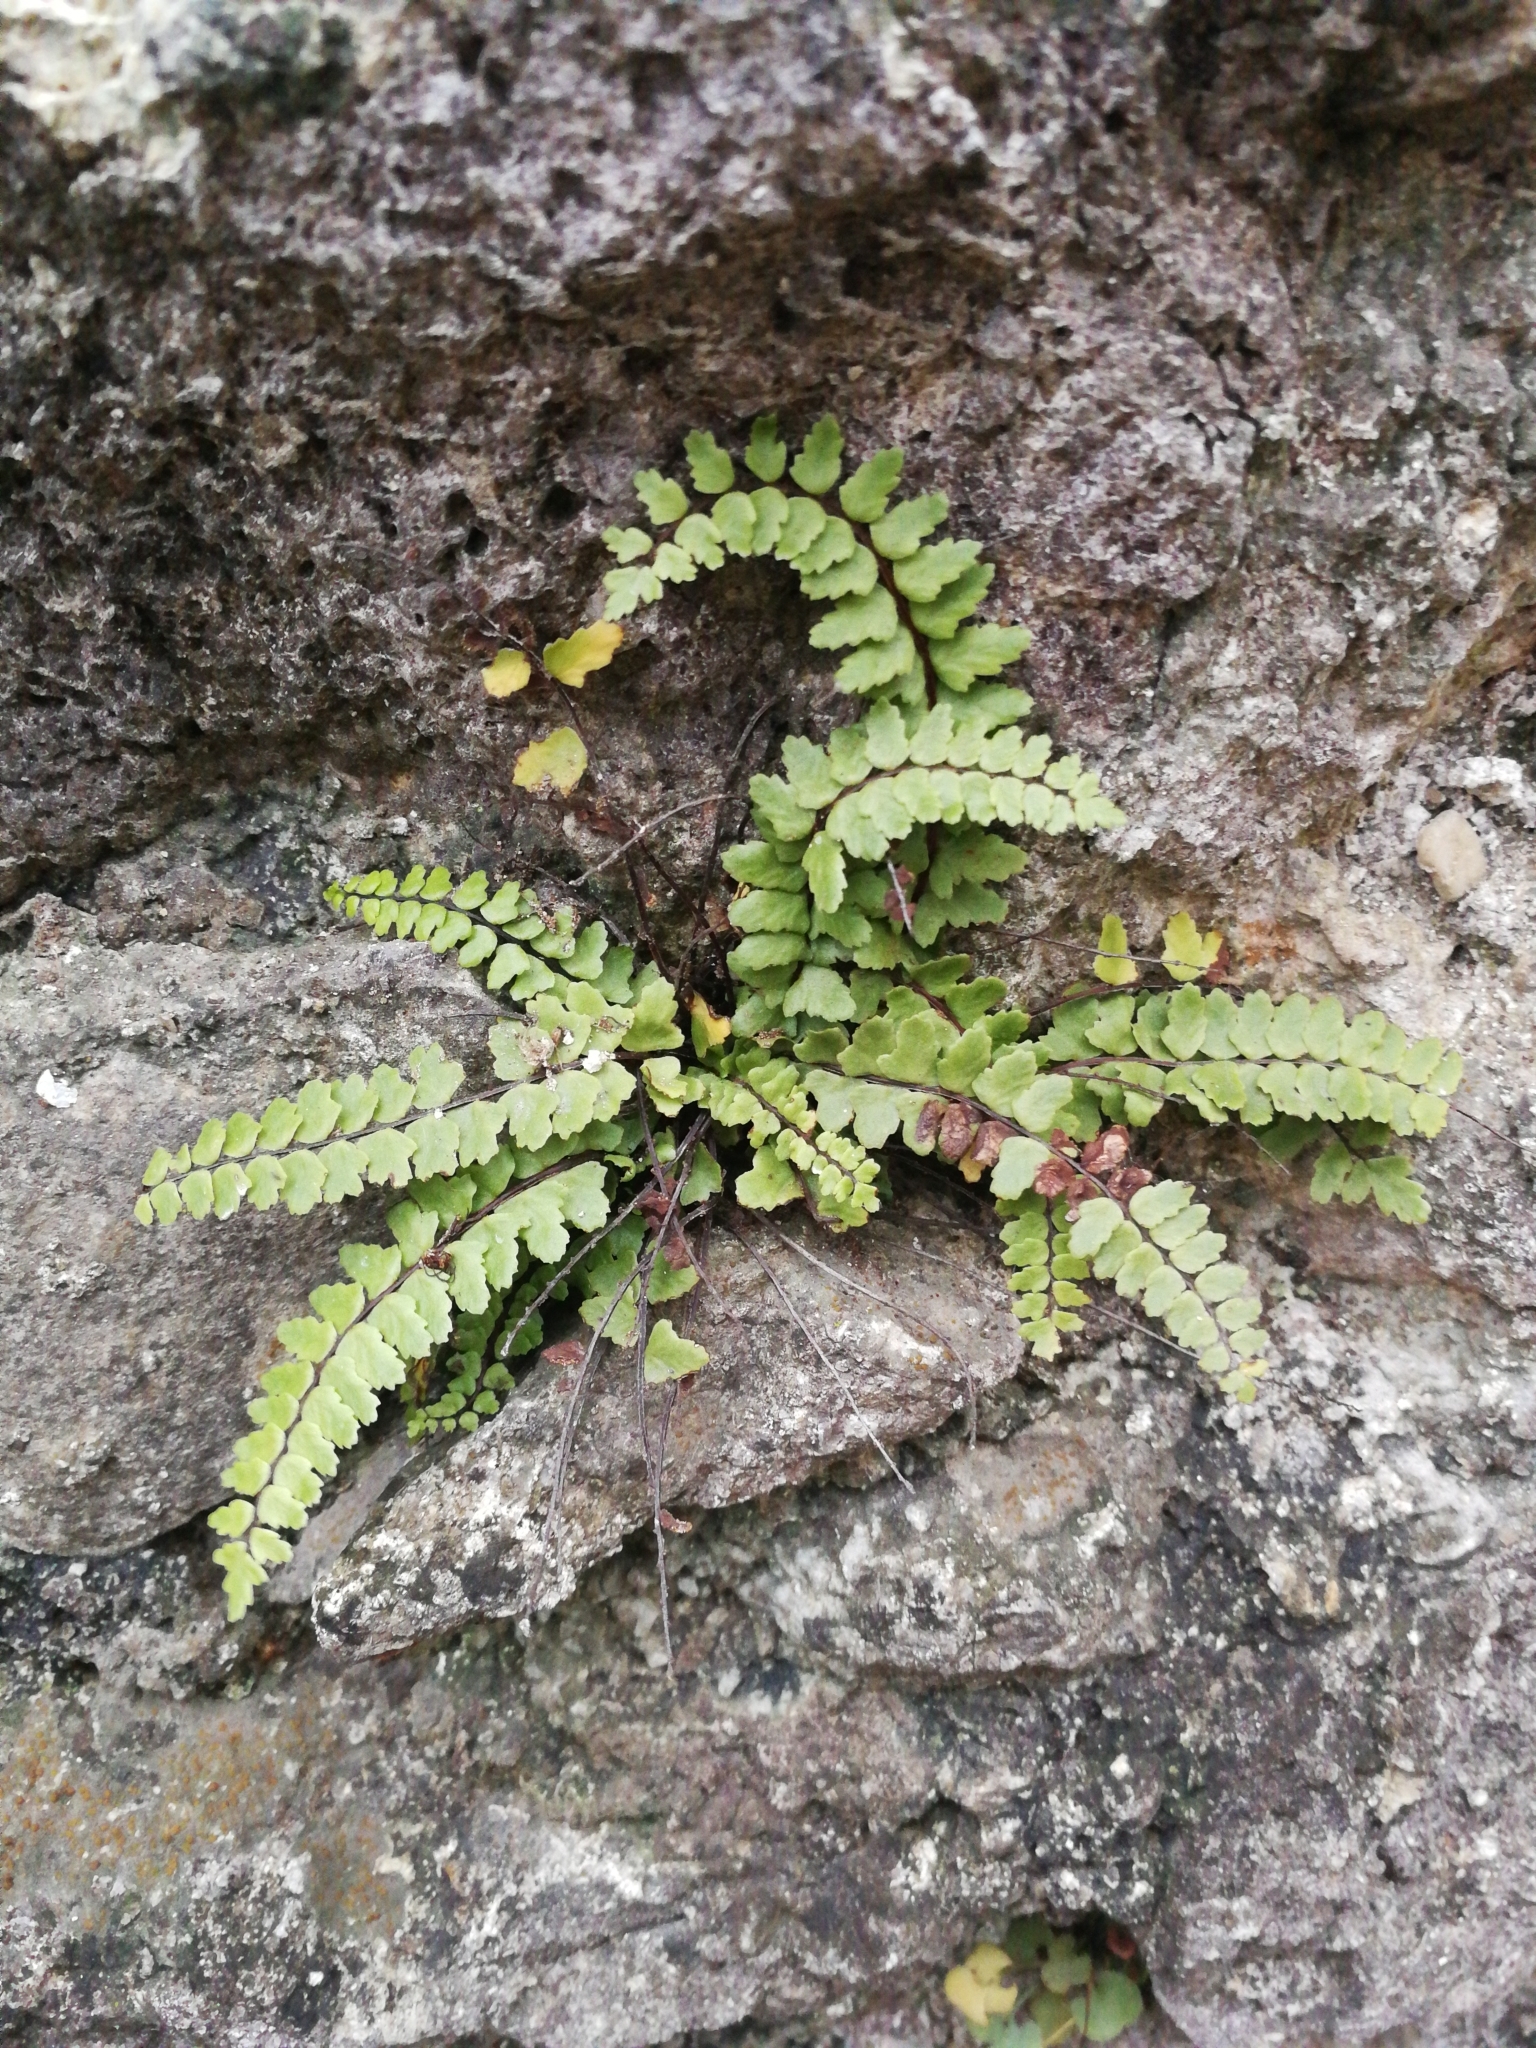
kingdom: Plantae
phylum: Tracheophyta
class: Polypodiopsida
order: Polypodiales
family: Aspleniaceae
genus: Asplenium
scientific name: Asplenium trichomanes
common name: Maidenhair spleenwort
